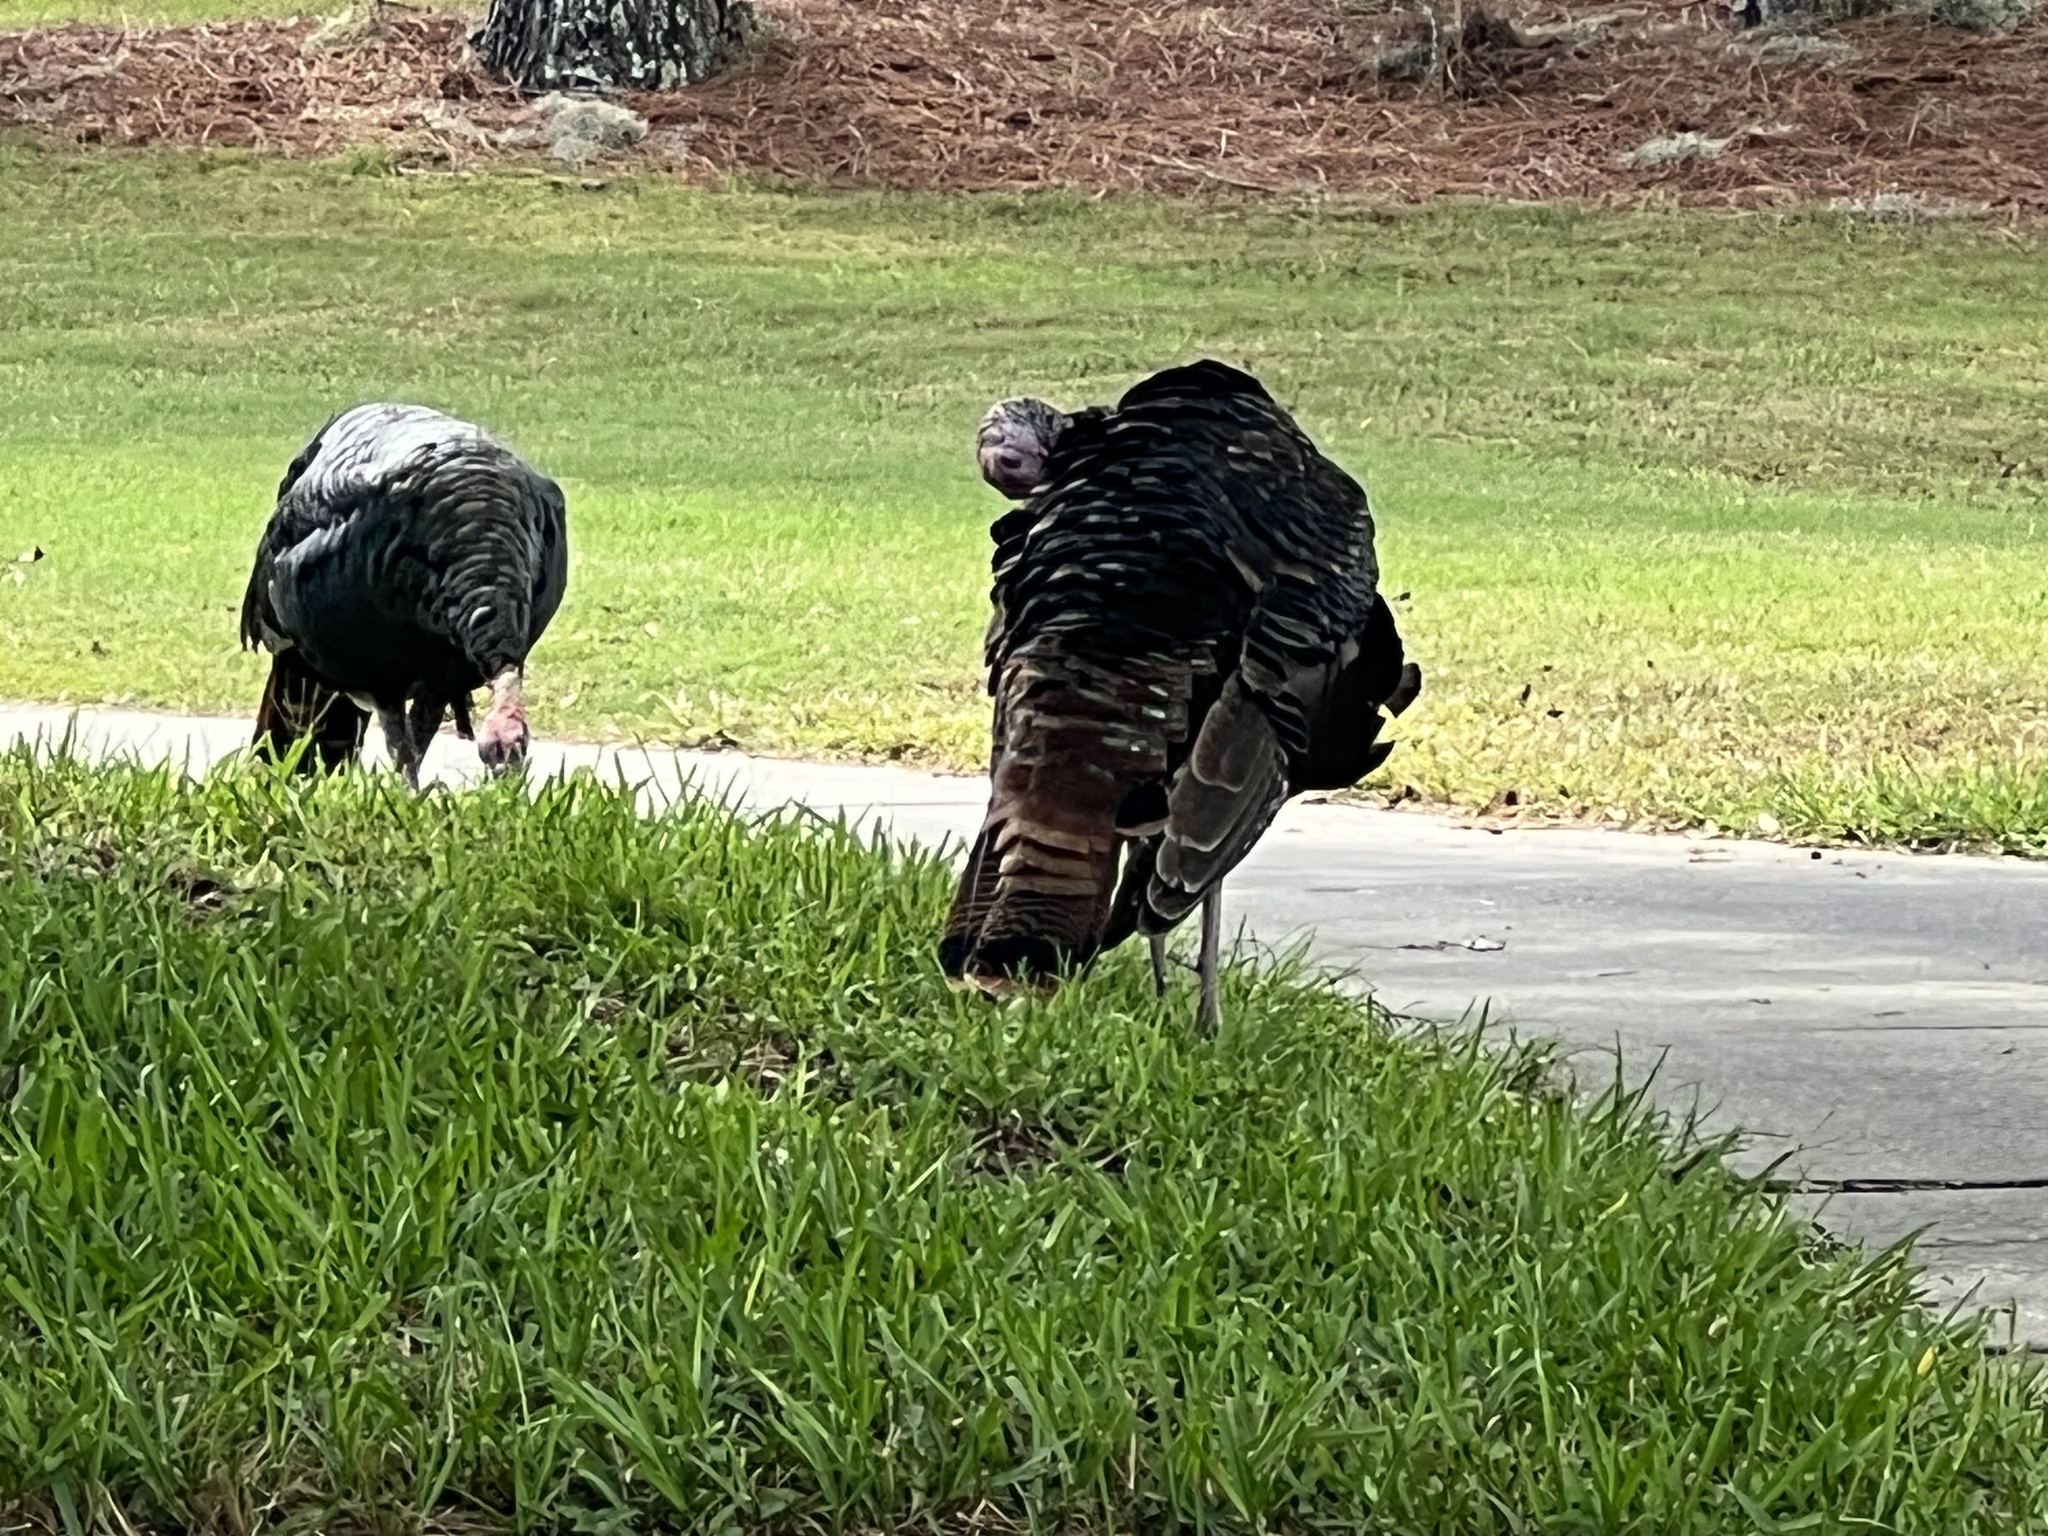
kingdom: Animalia
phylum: Chordata
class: Aves
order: Galliformes
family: Phasianidae
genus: Meleagris
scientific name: Meleagris gallopavo
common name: Wild turkey
